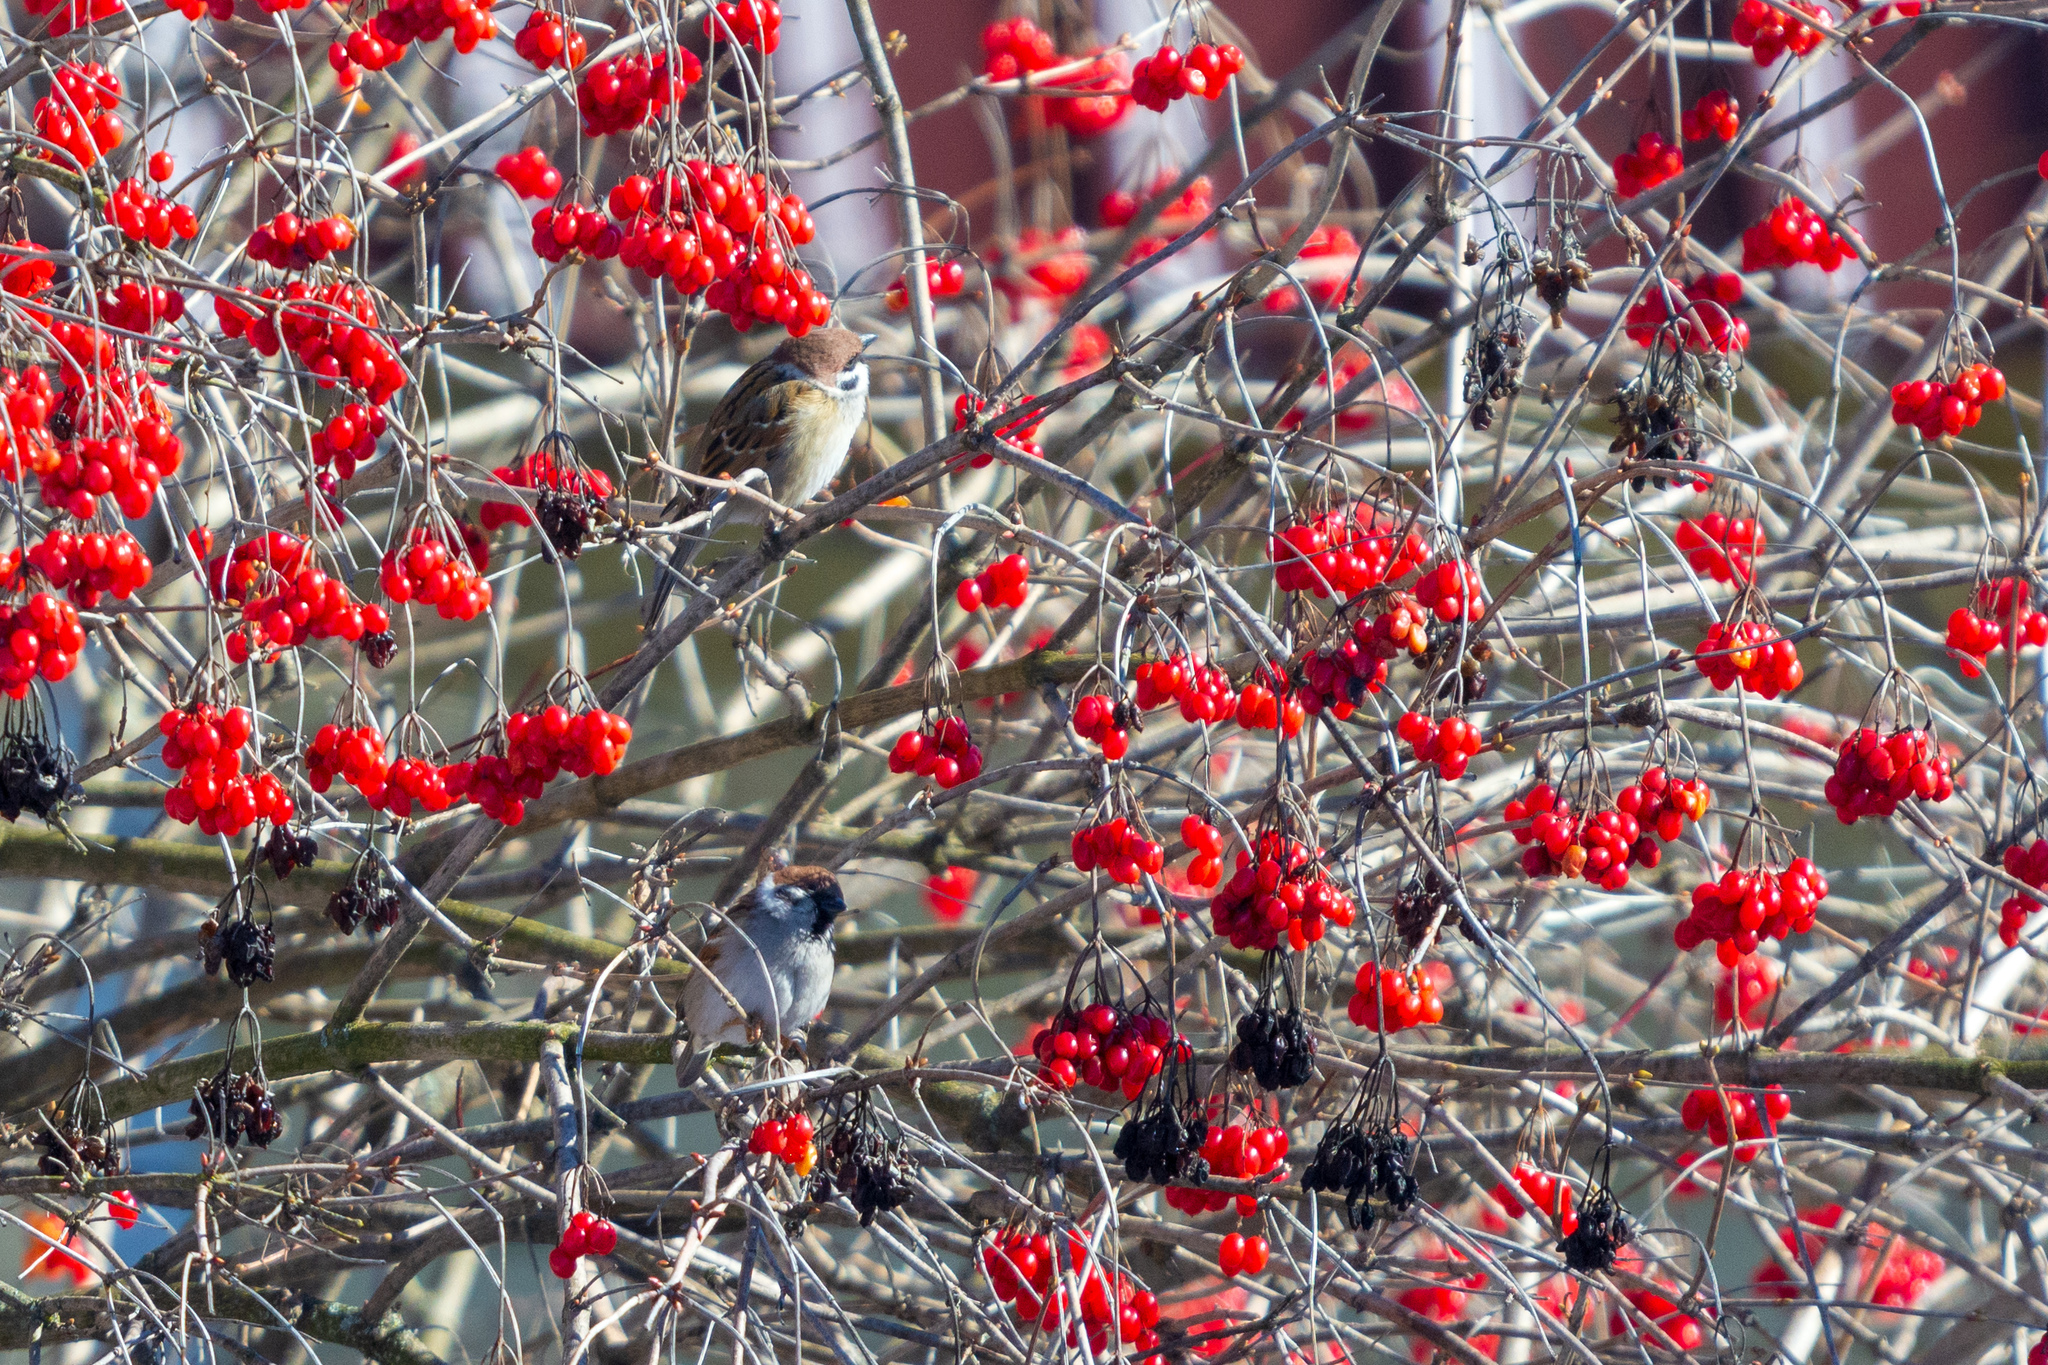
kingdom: Animalia
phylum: Chordata
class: Aves
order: Passeriformes
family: Passeridae
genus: Passer
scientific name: Passer montanus
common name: Eurasian tree sparrow
